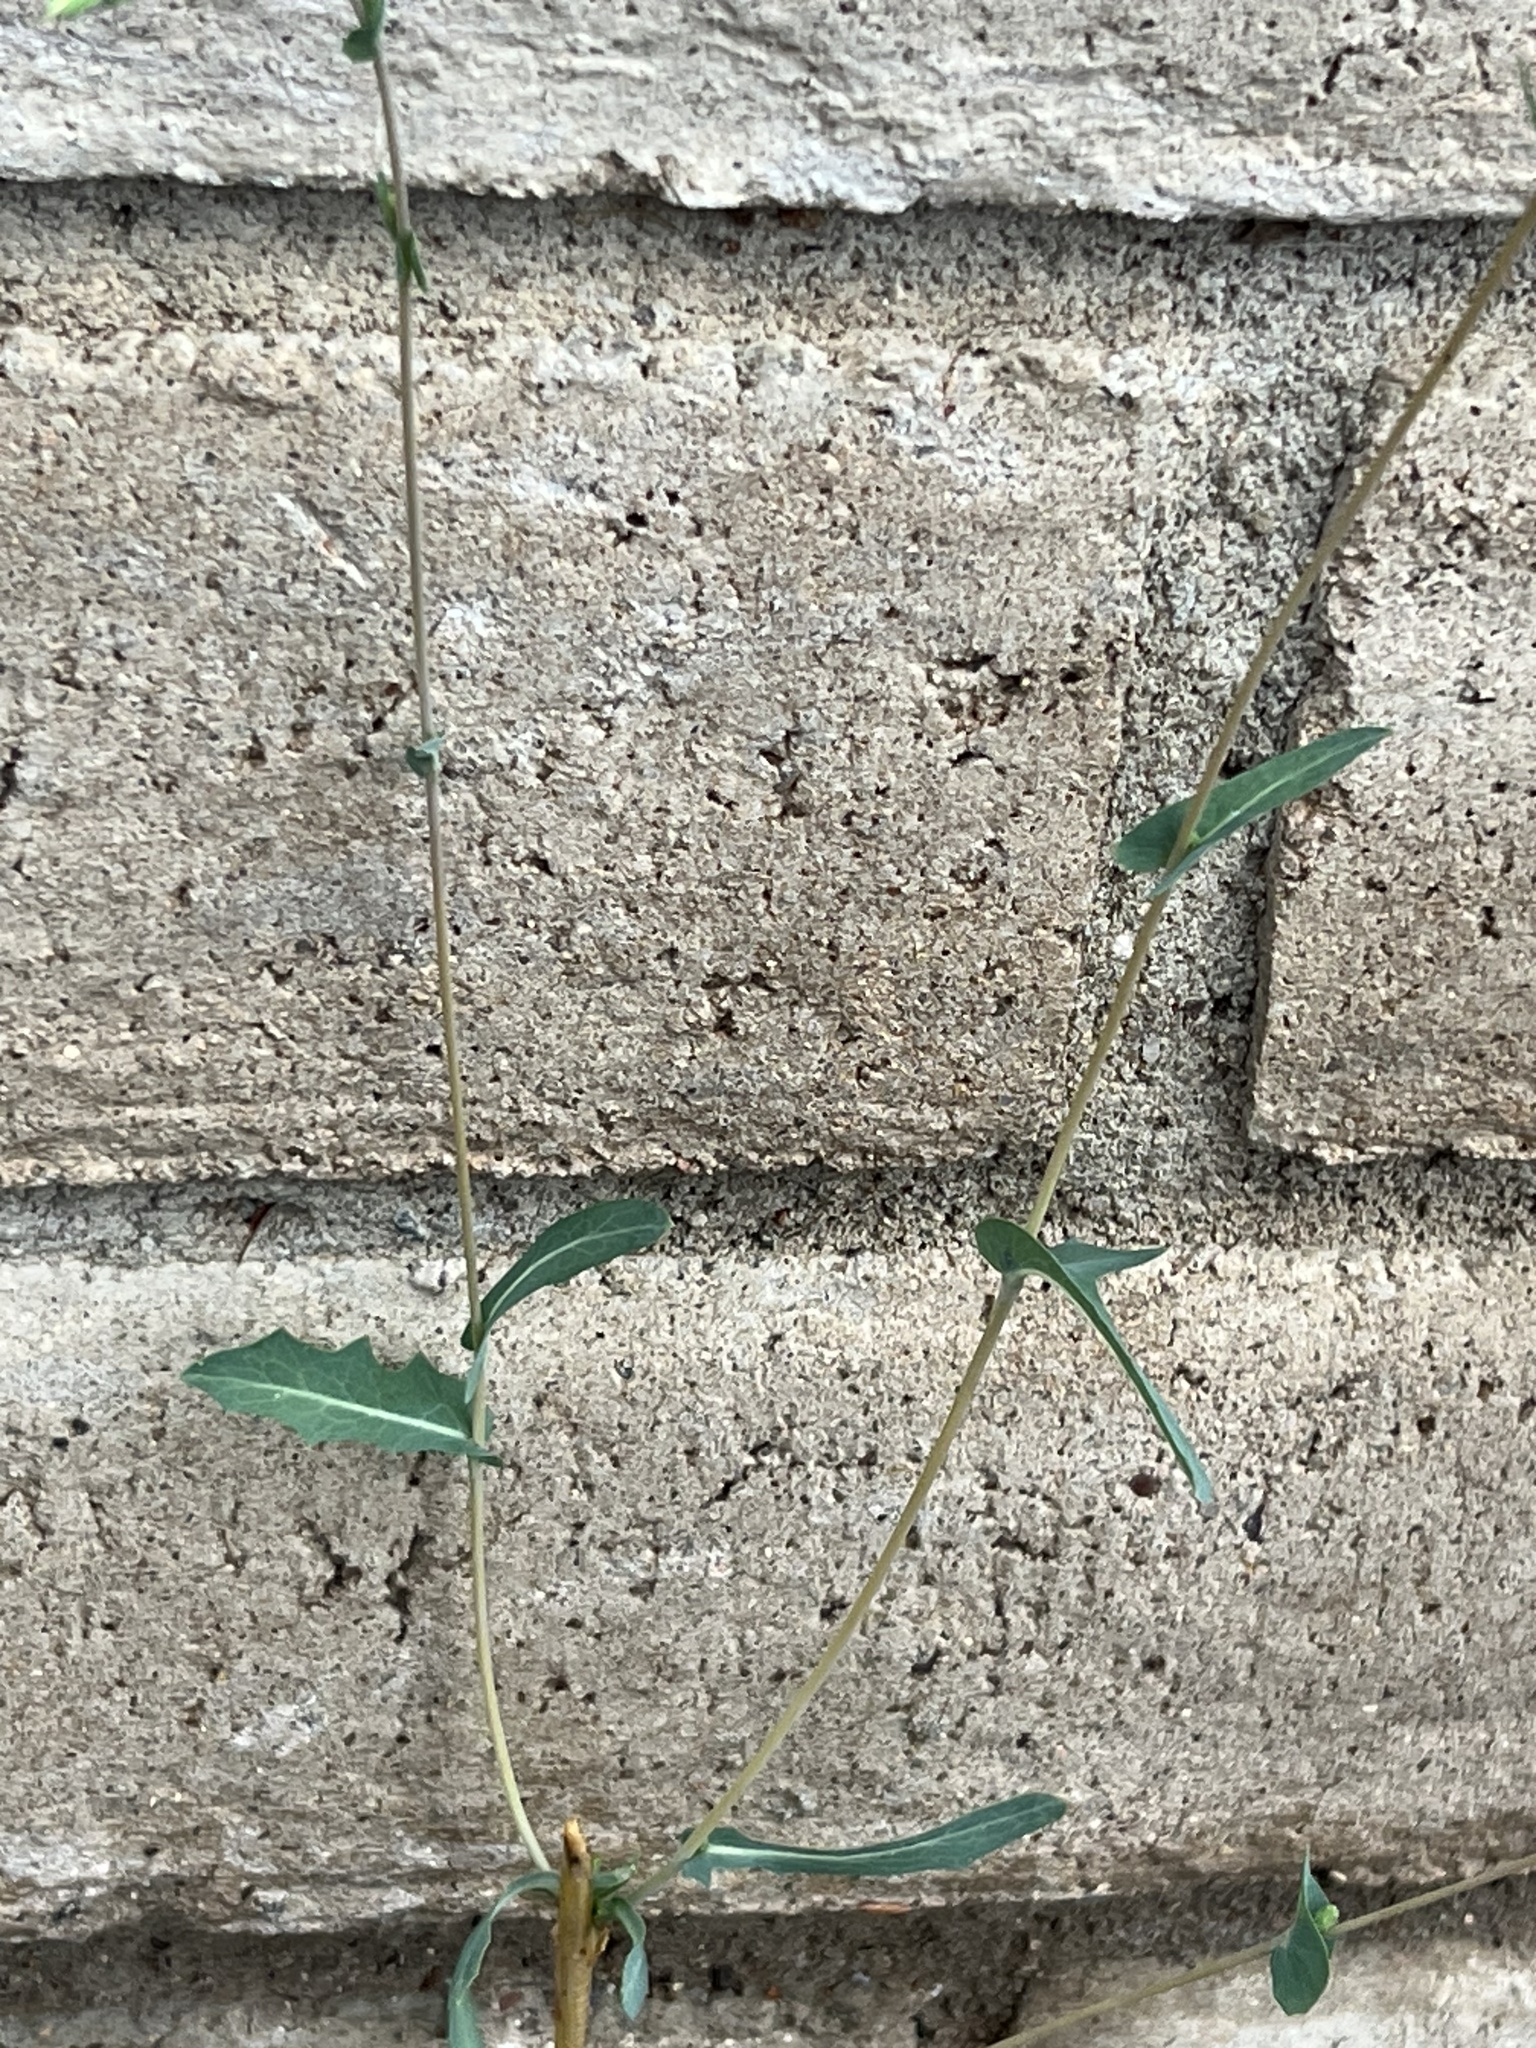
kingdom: Plantae
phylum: Tracheophyta
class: Magnoliopsida
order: Asterales
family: Asteraceae
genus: Lactuca
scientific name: Lactuca serriola
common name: Prickly lettuce
